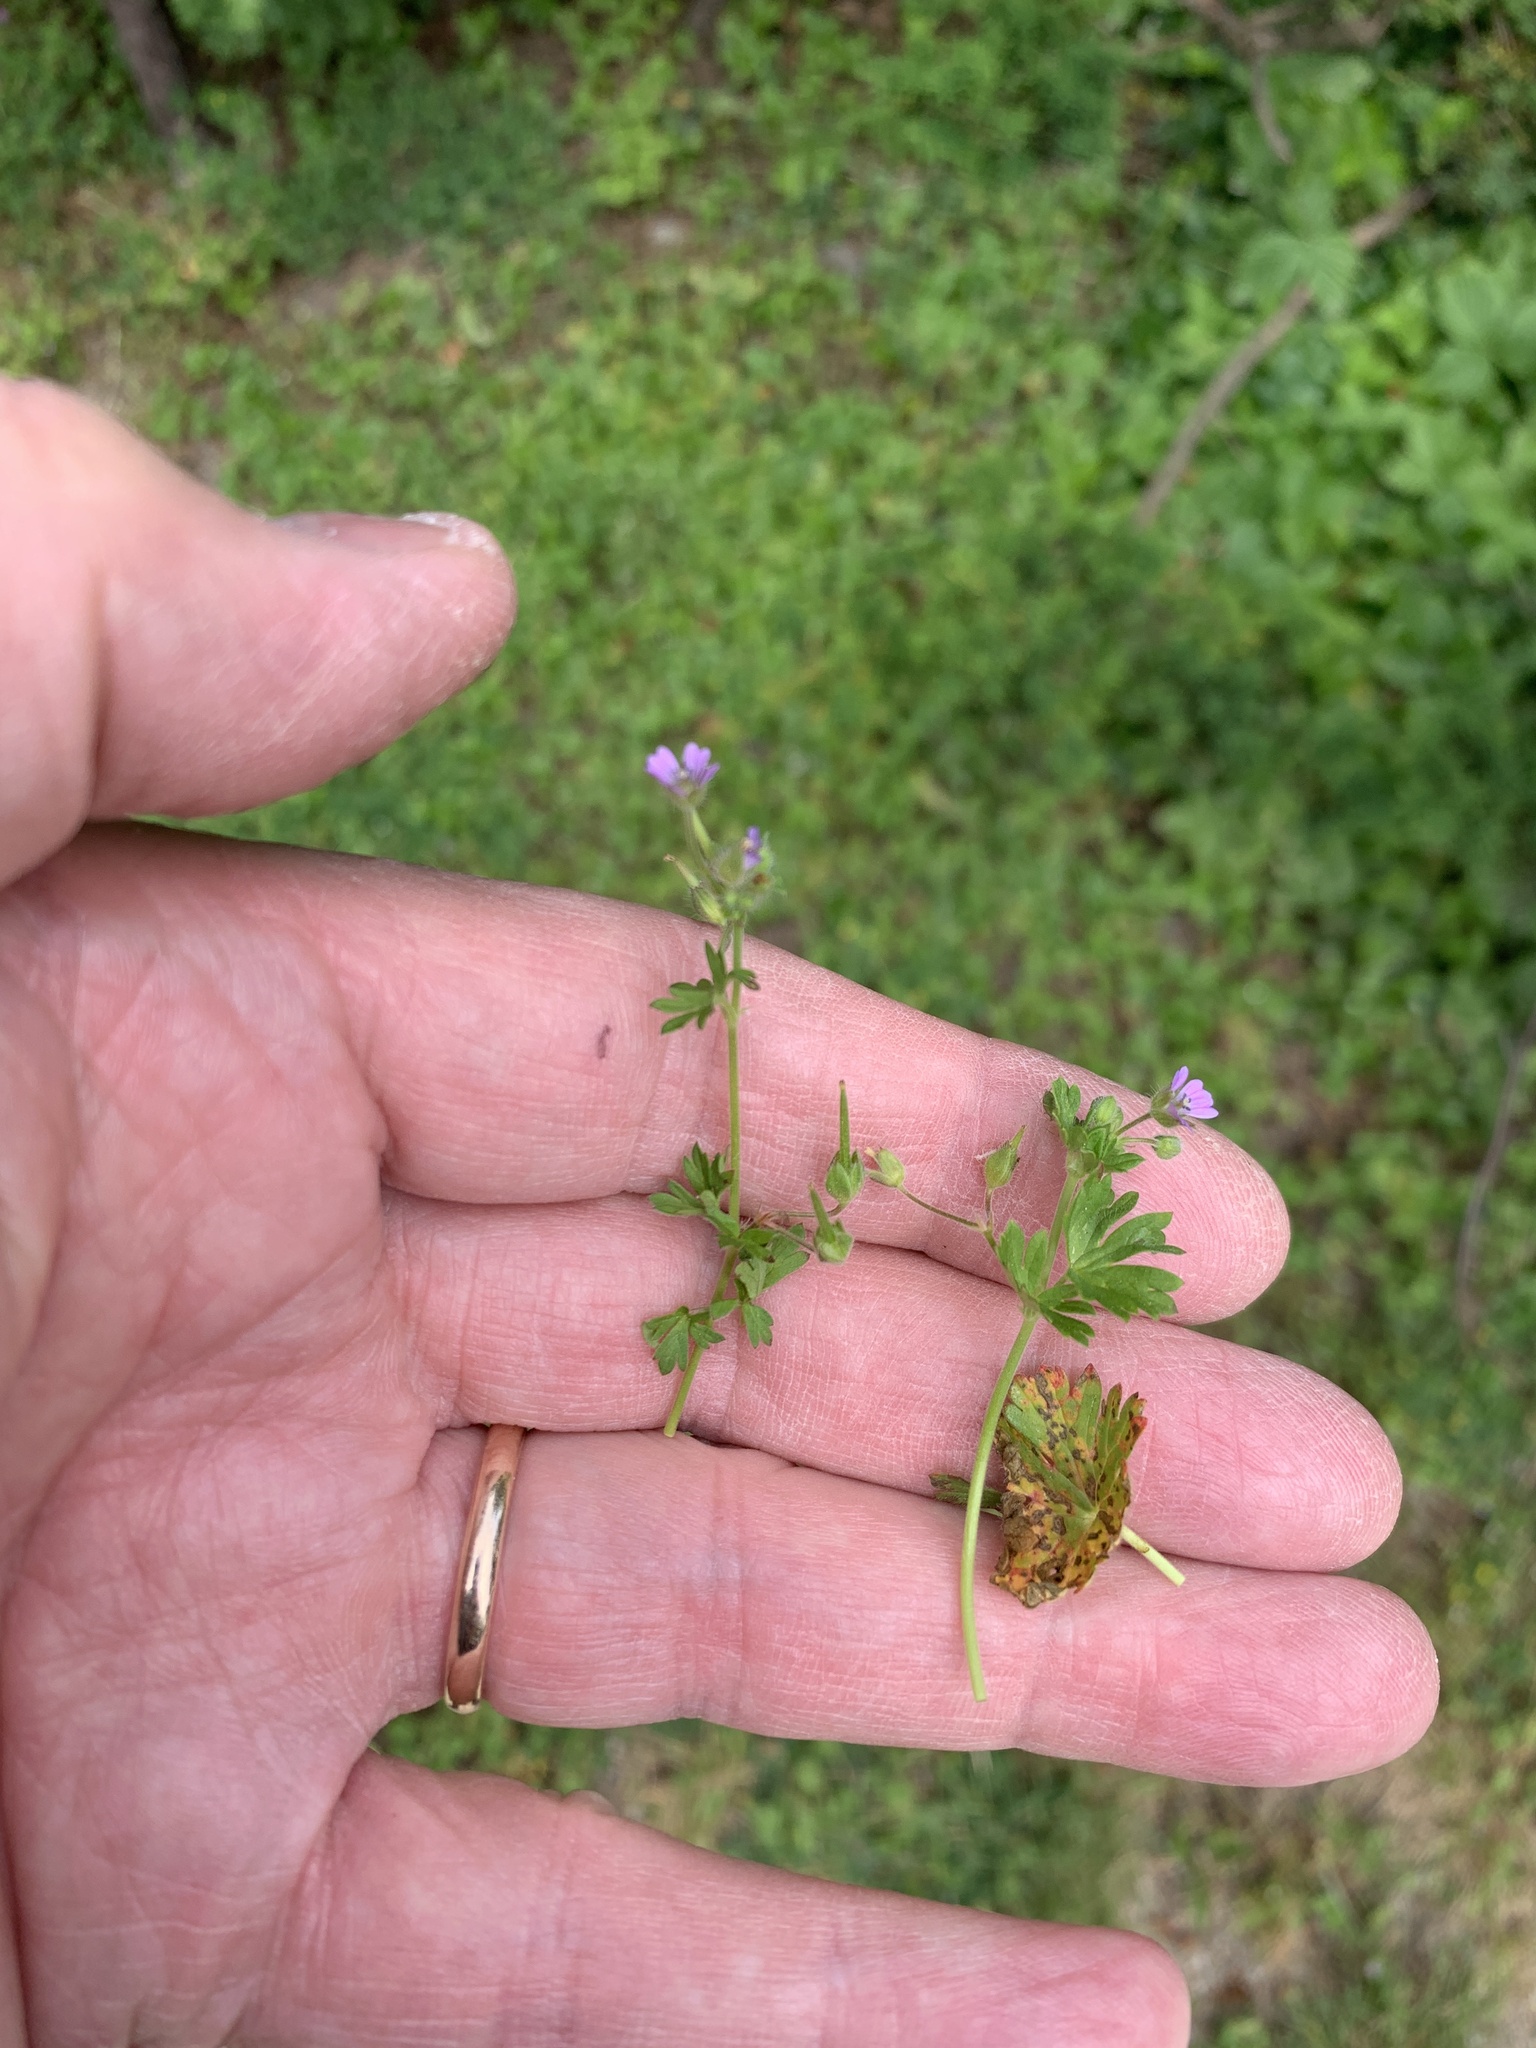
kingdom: Plantae
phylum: Tracheophyta
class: Magnoliopsida
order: Geraniales
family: Geraniaceae
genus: Geranium
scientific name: Geranium pusillum
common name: Small geranium
